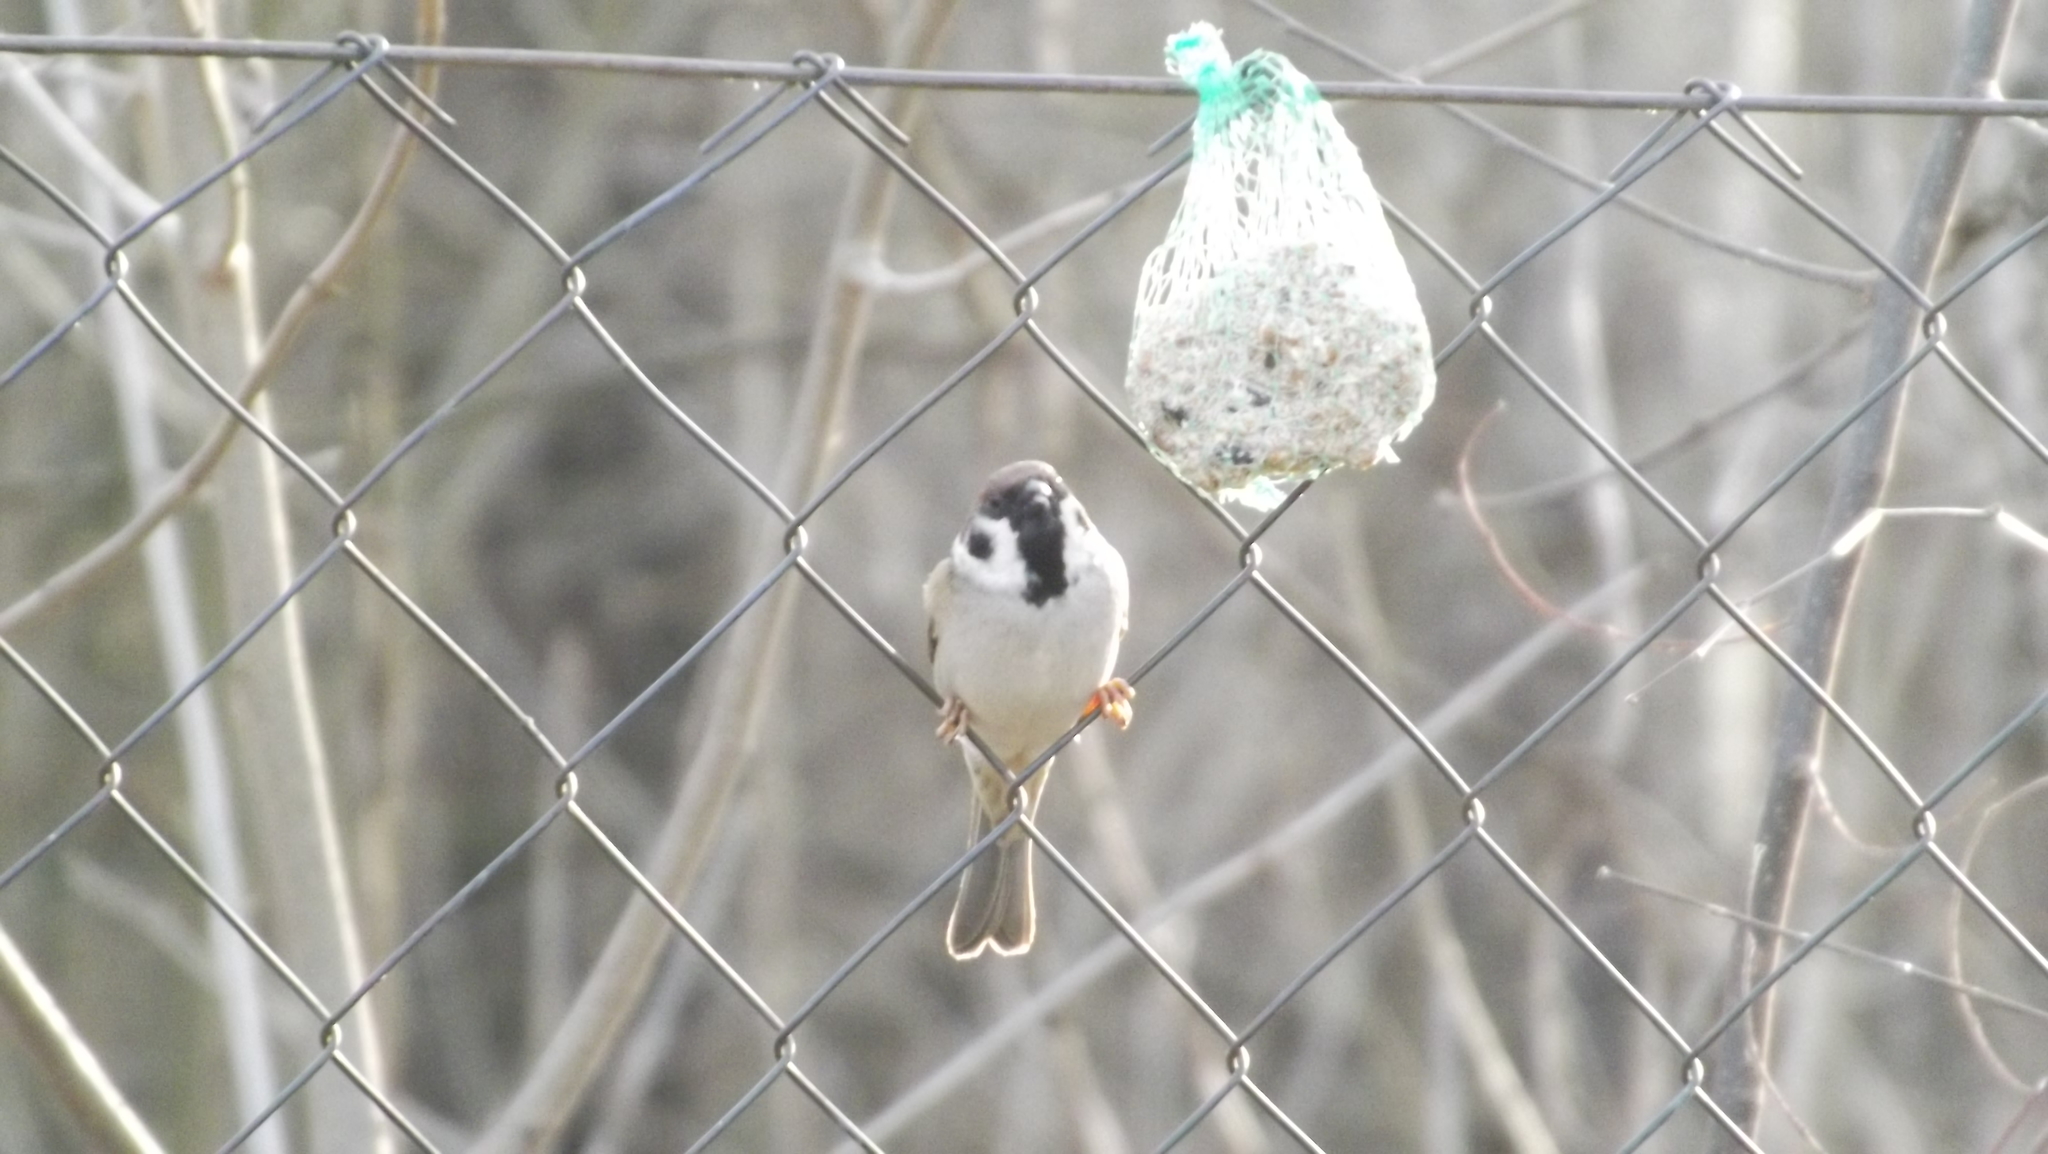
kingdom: Animalia
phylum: Chordata
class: Aves
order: Passeriformes
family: Passeridae
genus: Passer
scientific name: Passer montanus
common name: Eurasian tree sparrow
